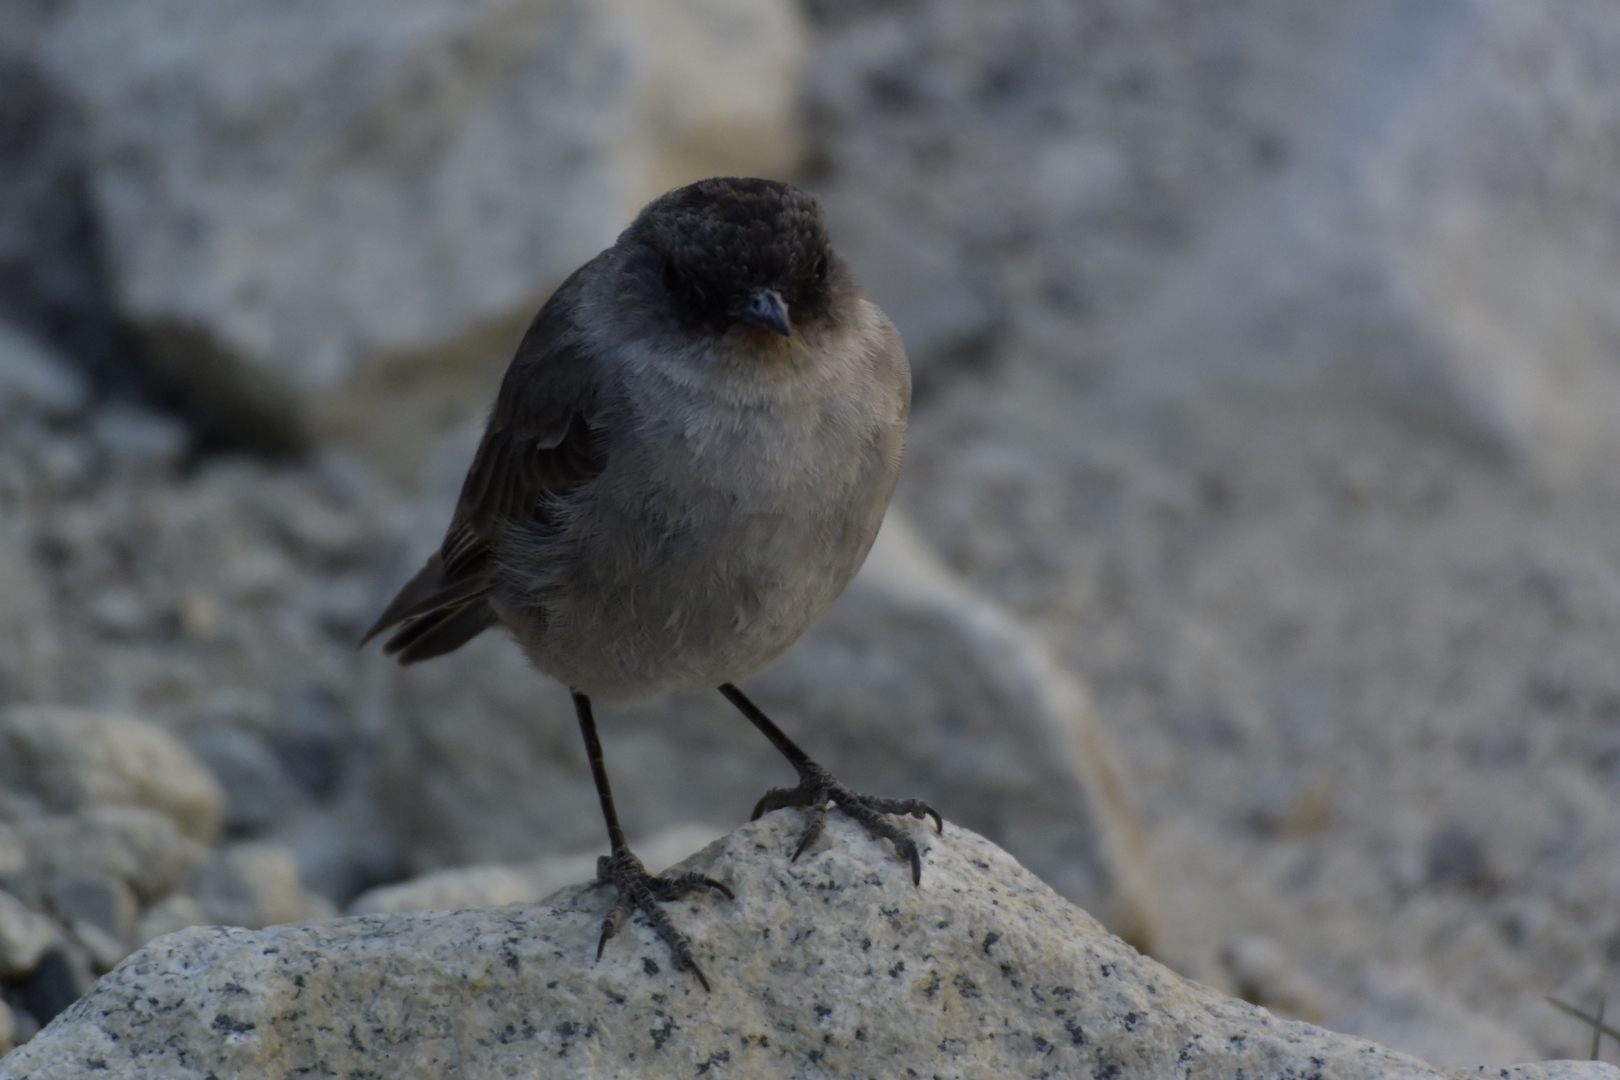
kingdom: Animalia
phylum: Chordata
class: Aves
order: Passeriformes
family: Tyrannidae
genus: Muscisaxicola
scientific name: Muscisaxicola maclovianus
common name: Dark-faced ground tyrant
